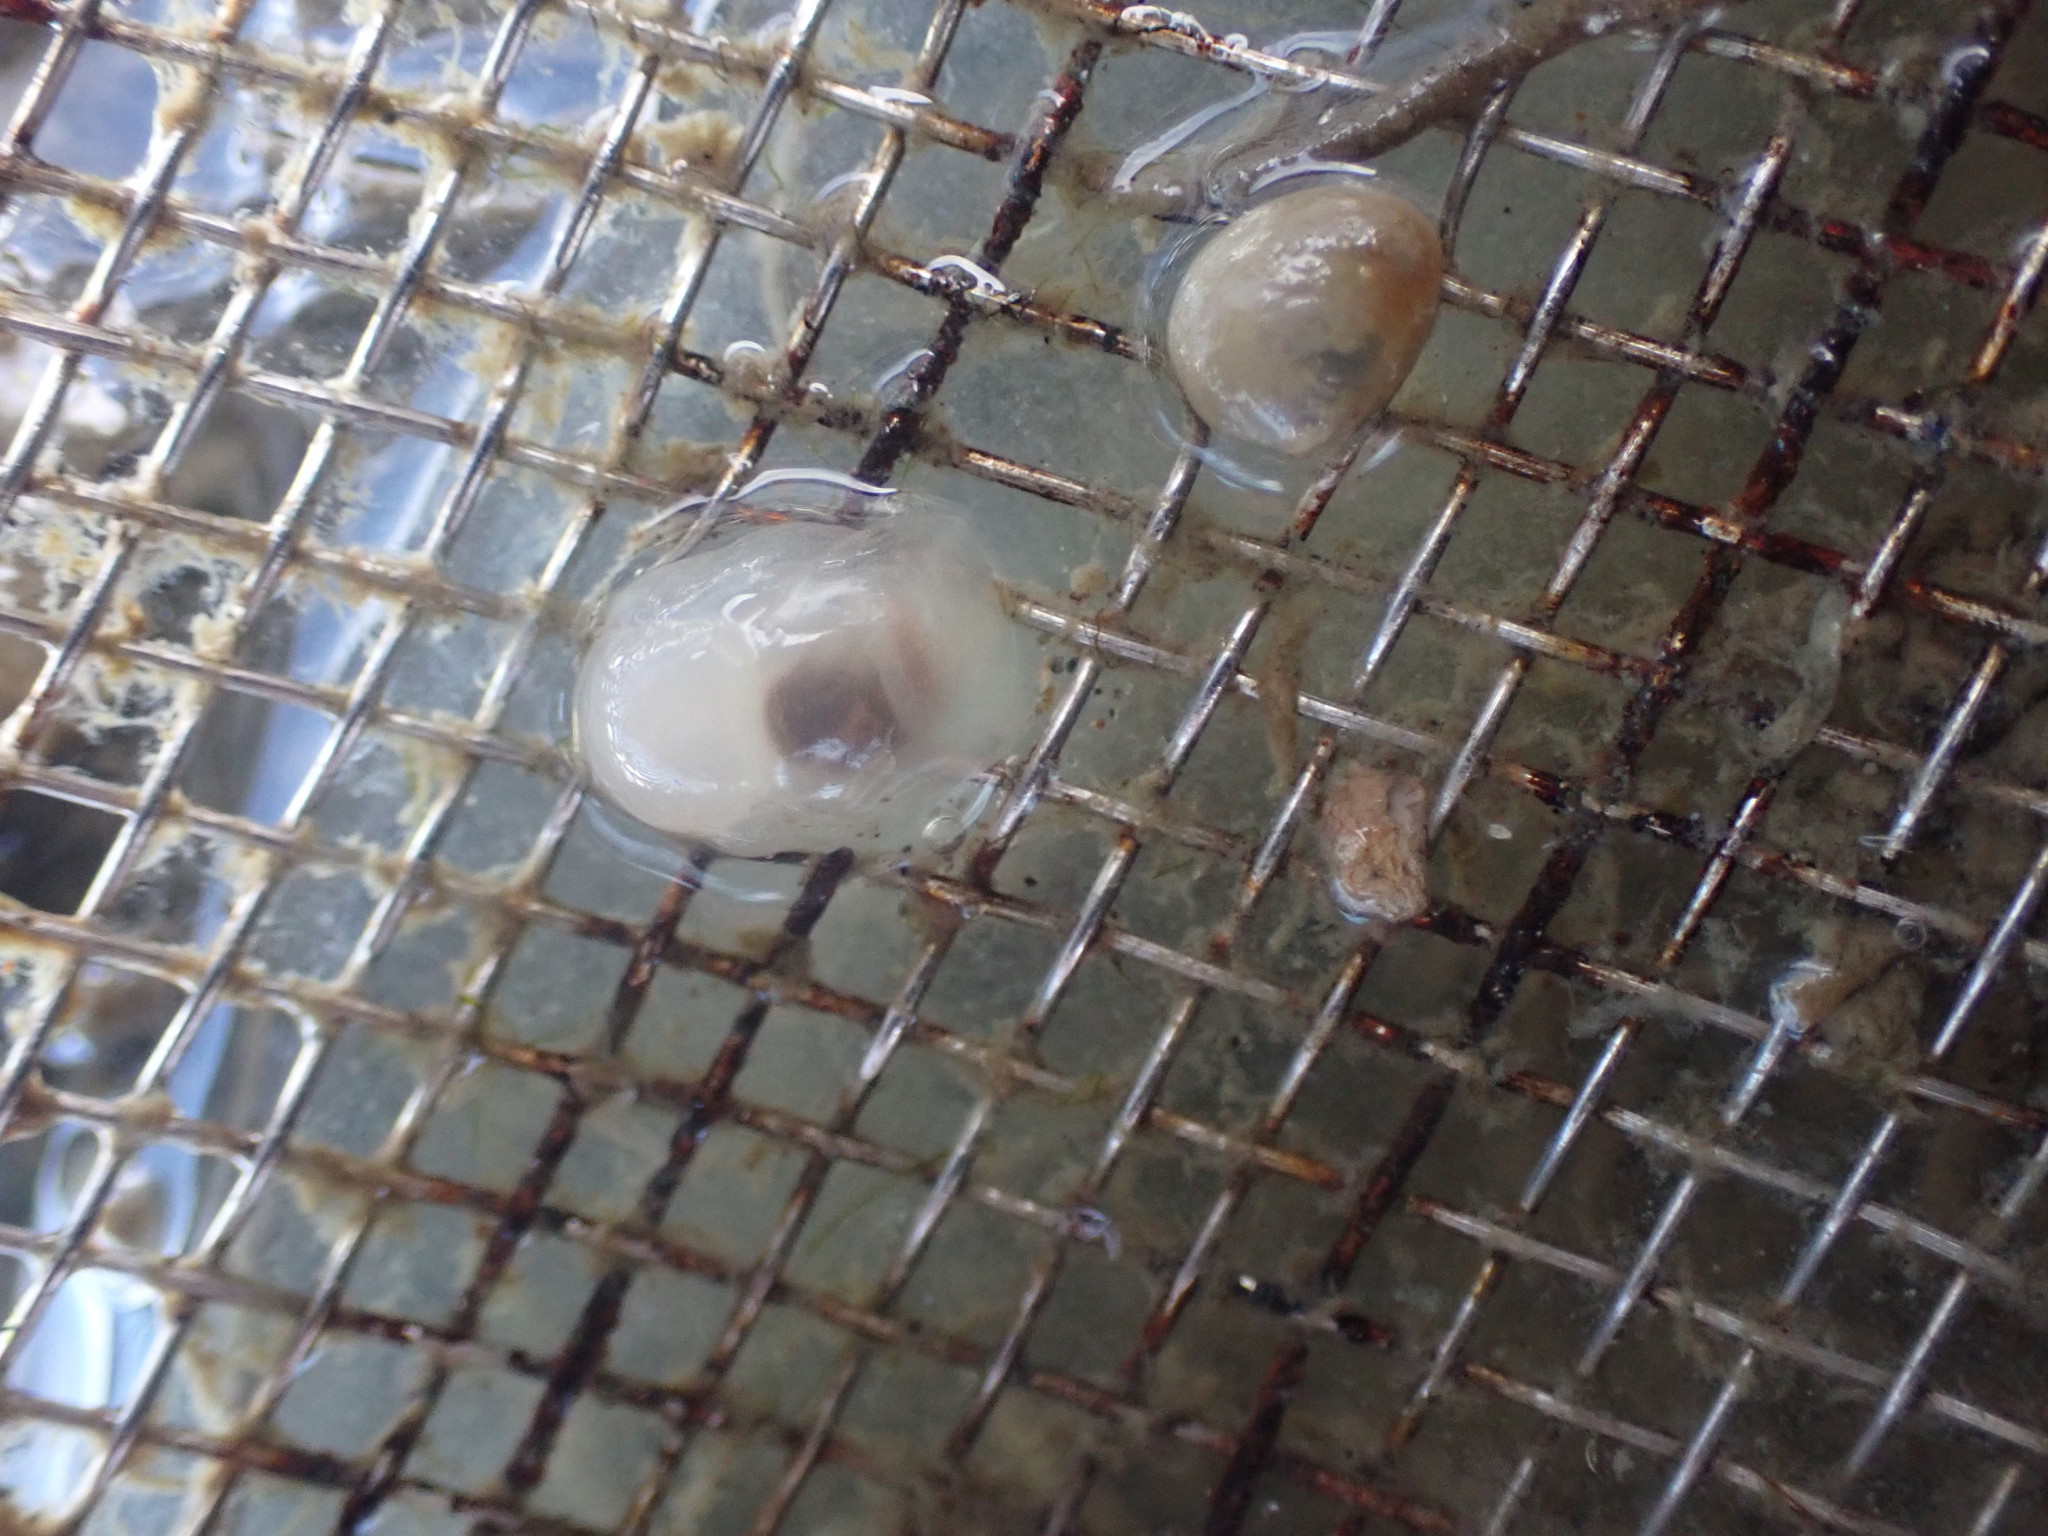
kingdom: Animalia
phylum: Mollusca
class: Gastropoda
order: Cephalaspidea
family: Philinidae
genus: Philine
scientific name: Philine
